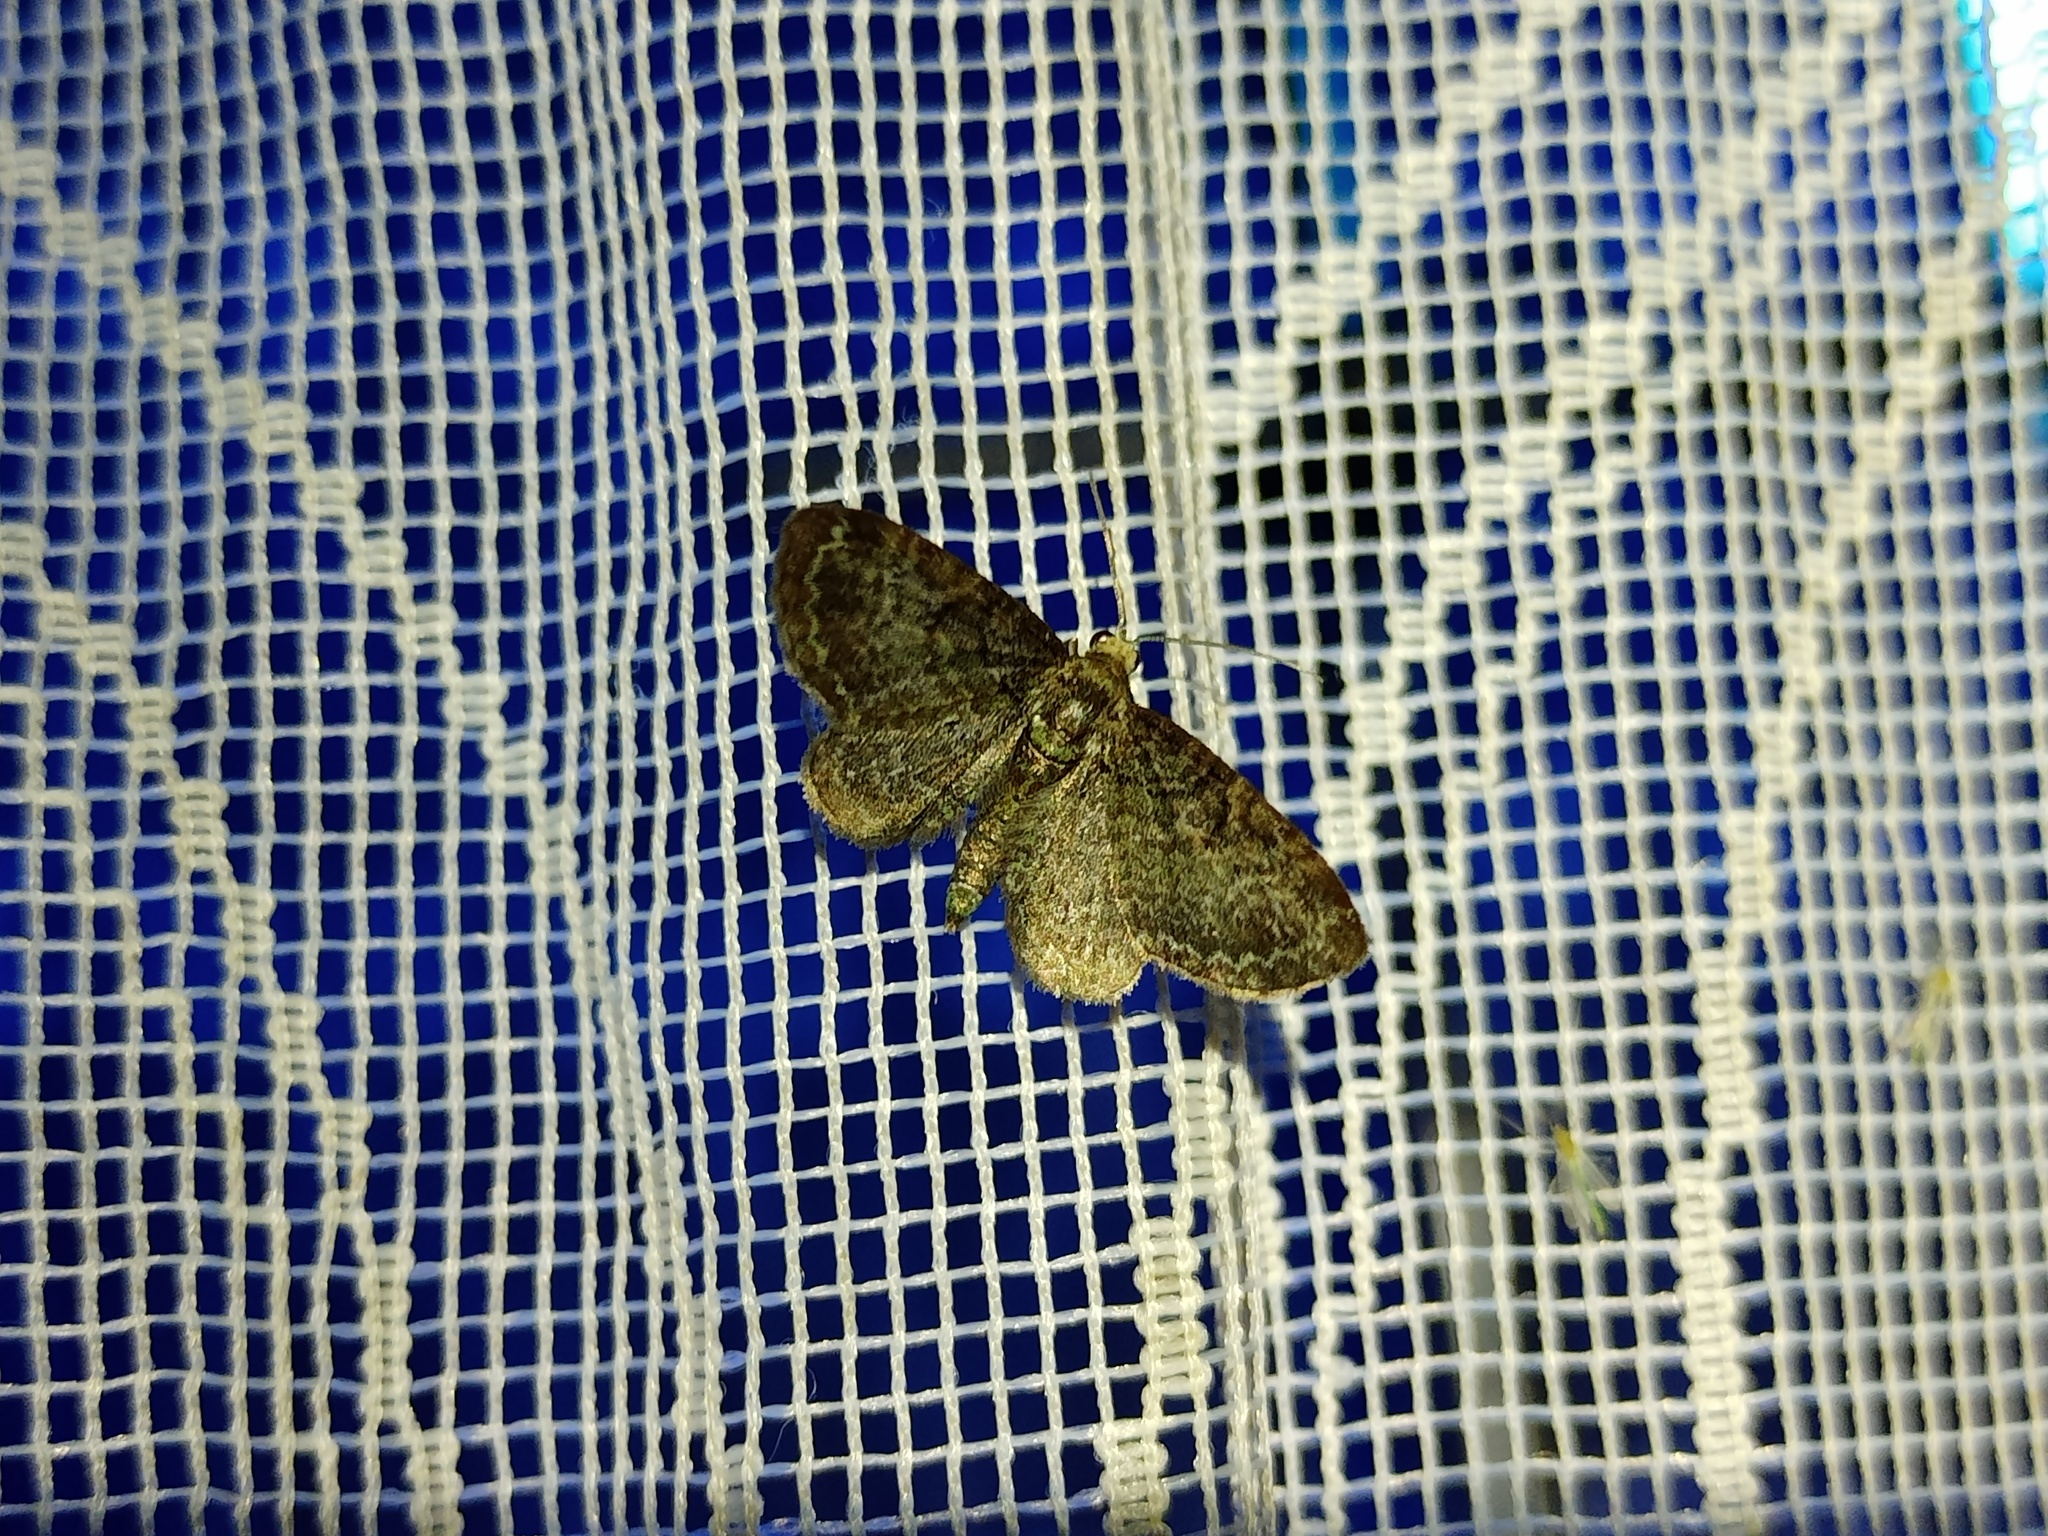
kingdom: Animalia
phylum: Arthropoda
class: Insecta
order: Lepidoptera
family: Geometridae
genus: Pasiphila
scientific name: Pasiphila rectangulata
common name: Green pug
